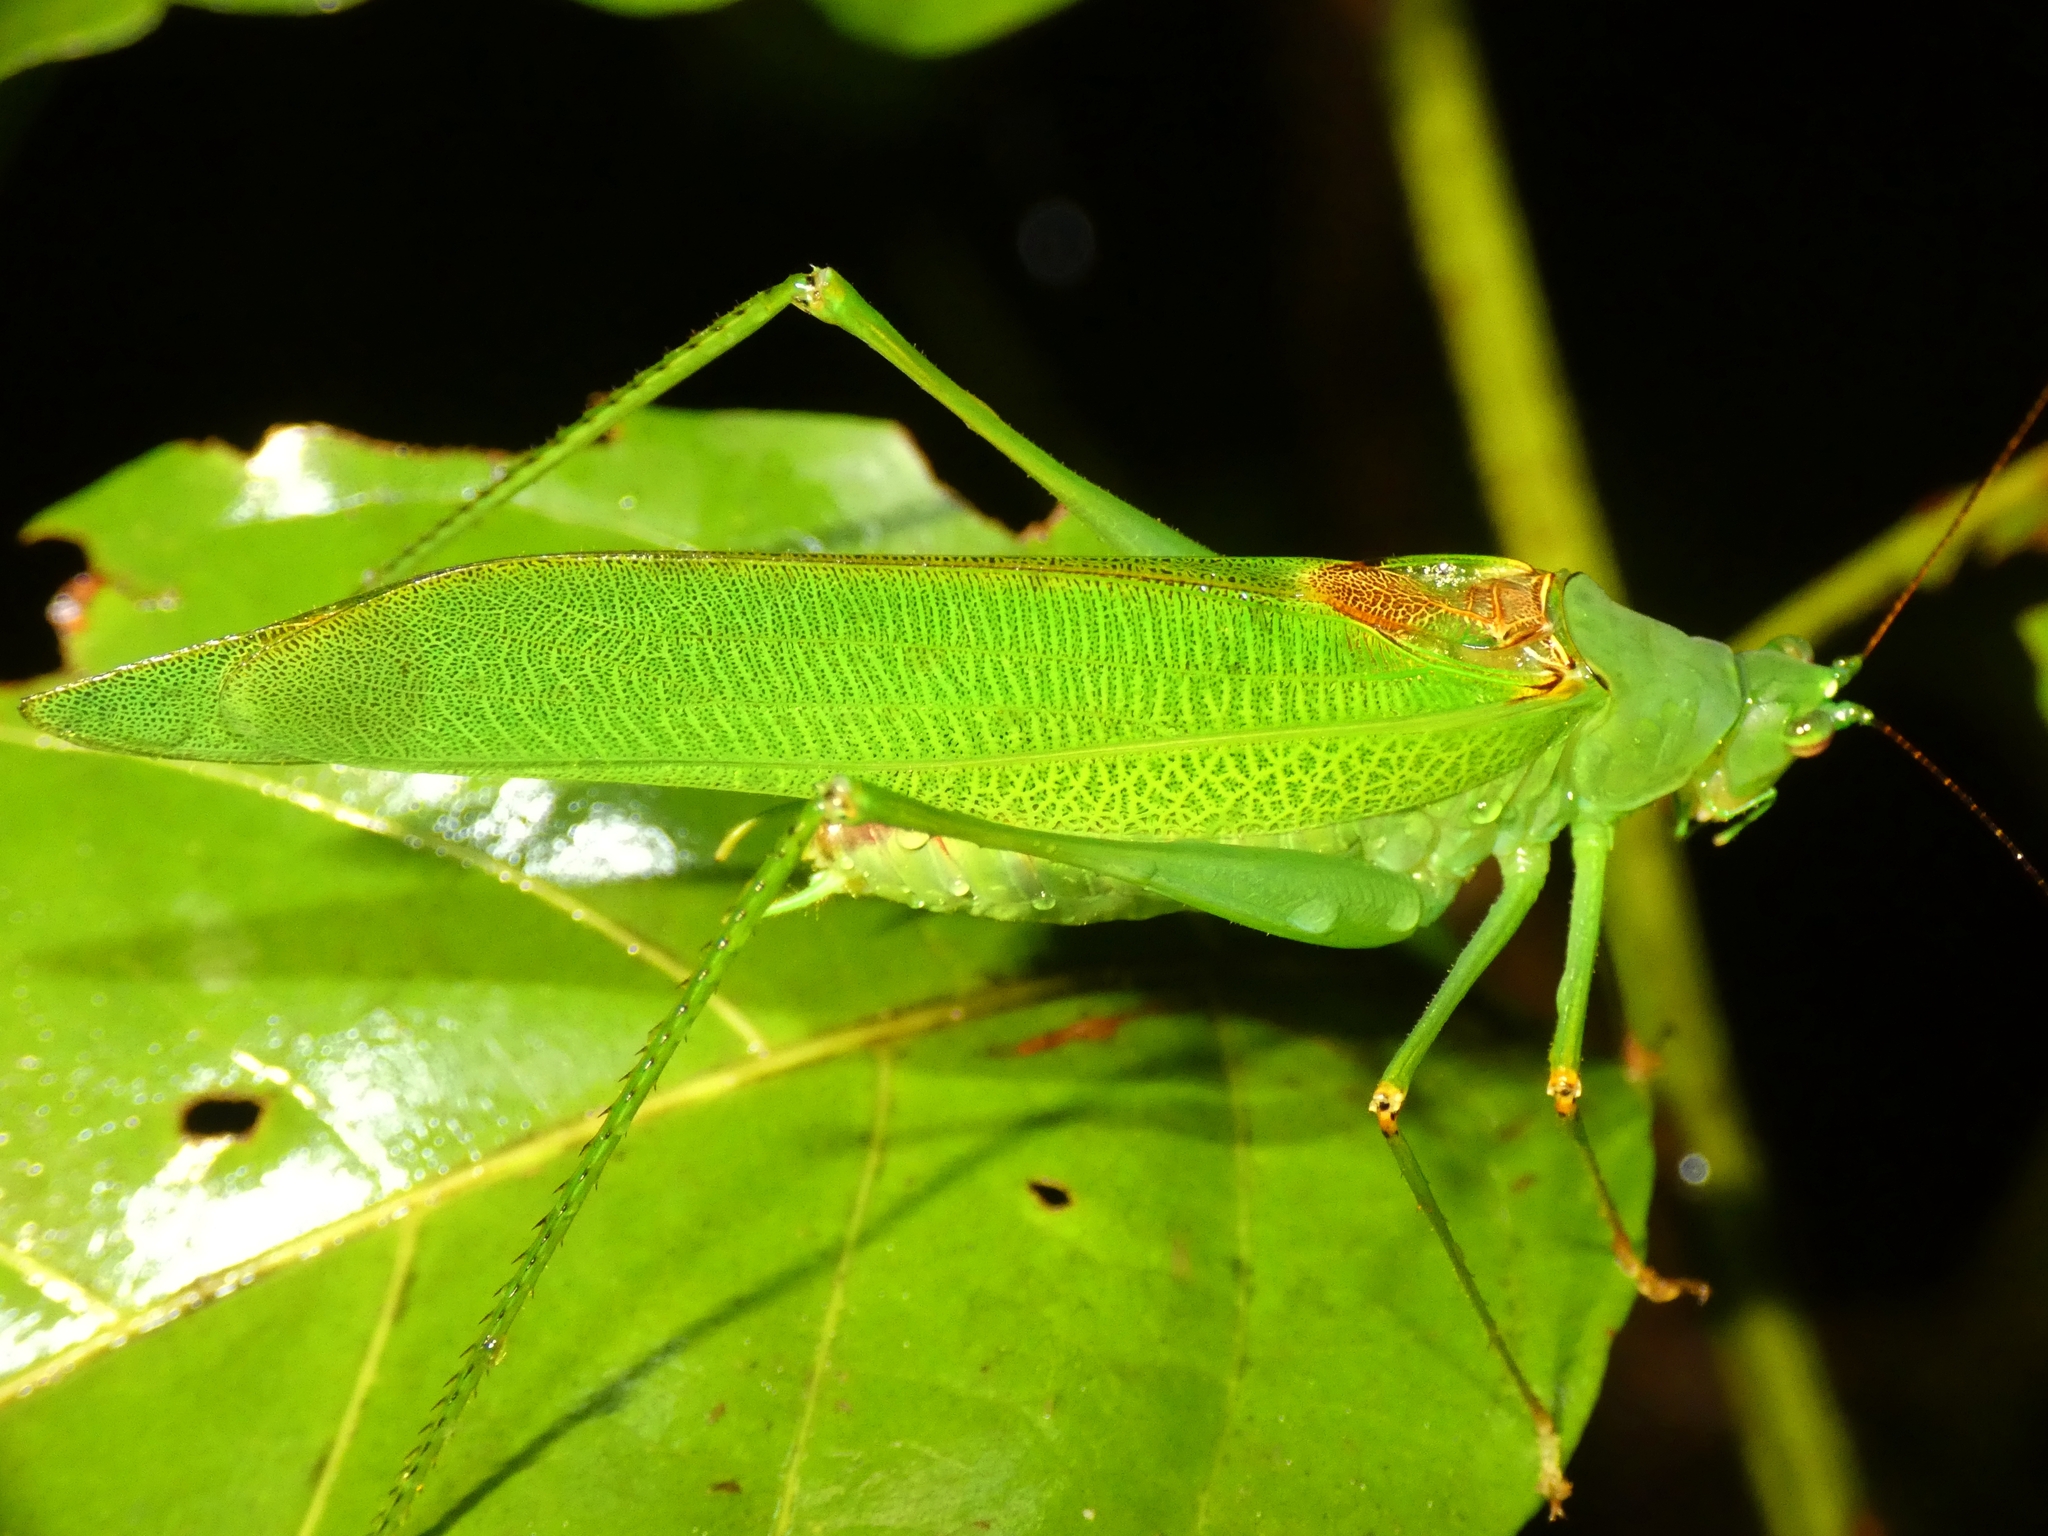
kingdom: Animalia
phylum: Arthropoda
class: Insecta
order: Orthoptera
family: Tettigoniidae
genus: Leucopodoptera
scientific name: Leucopodoptera eumundii
